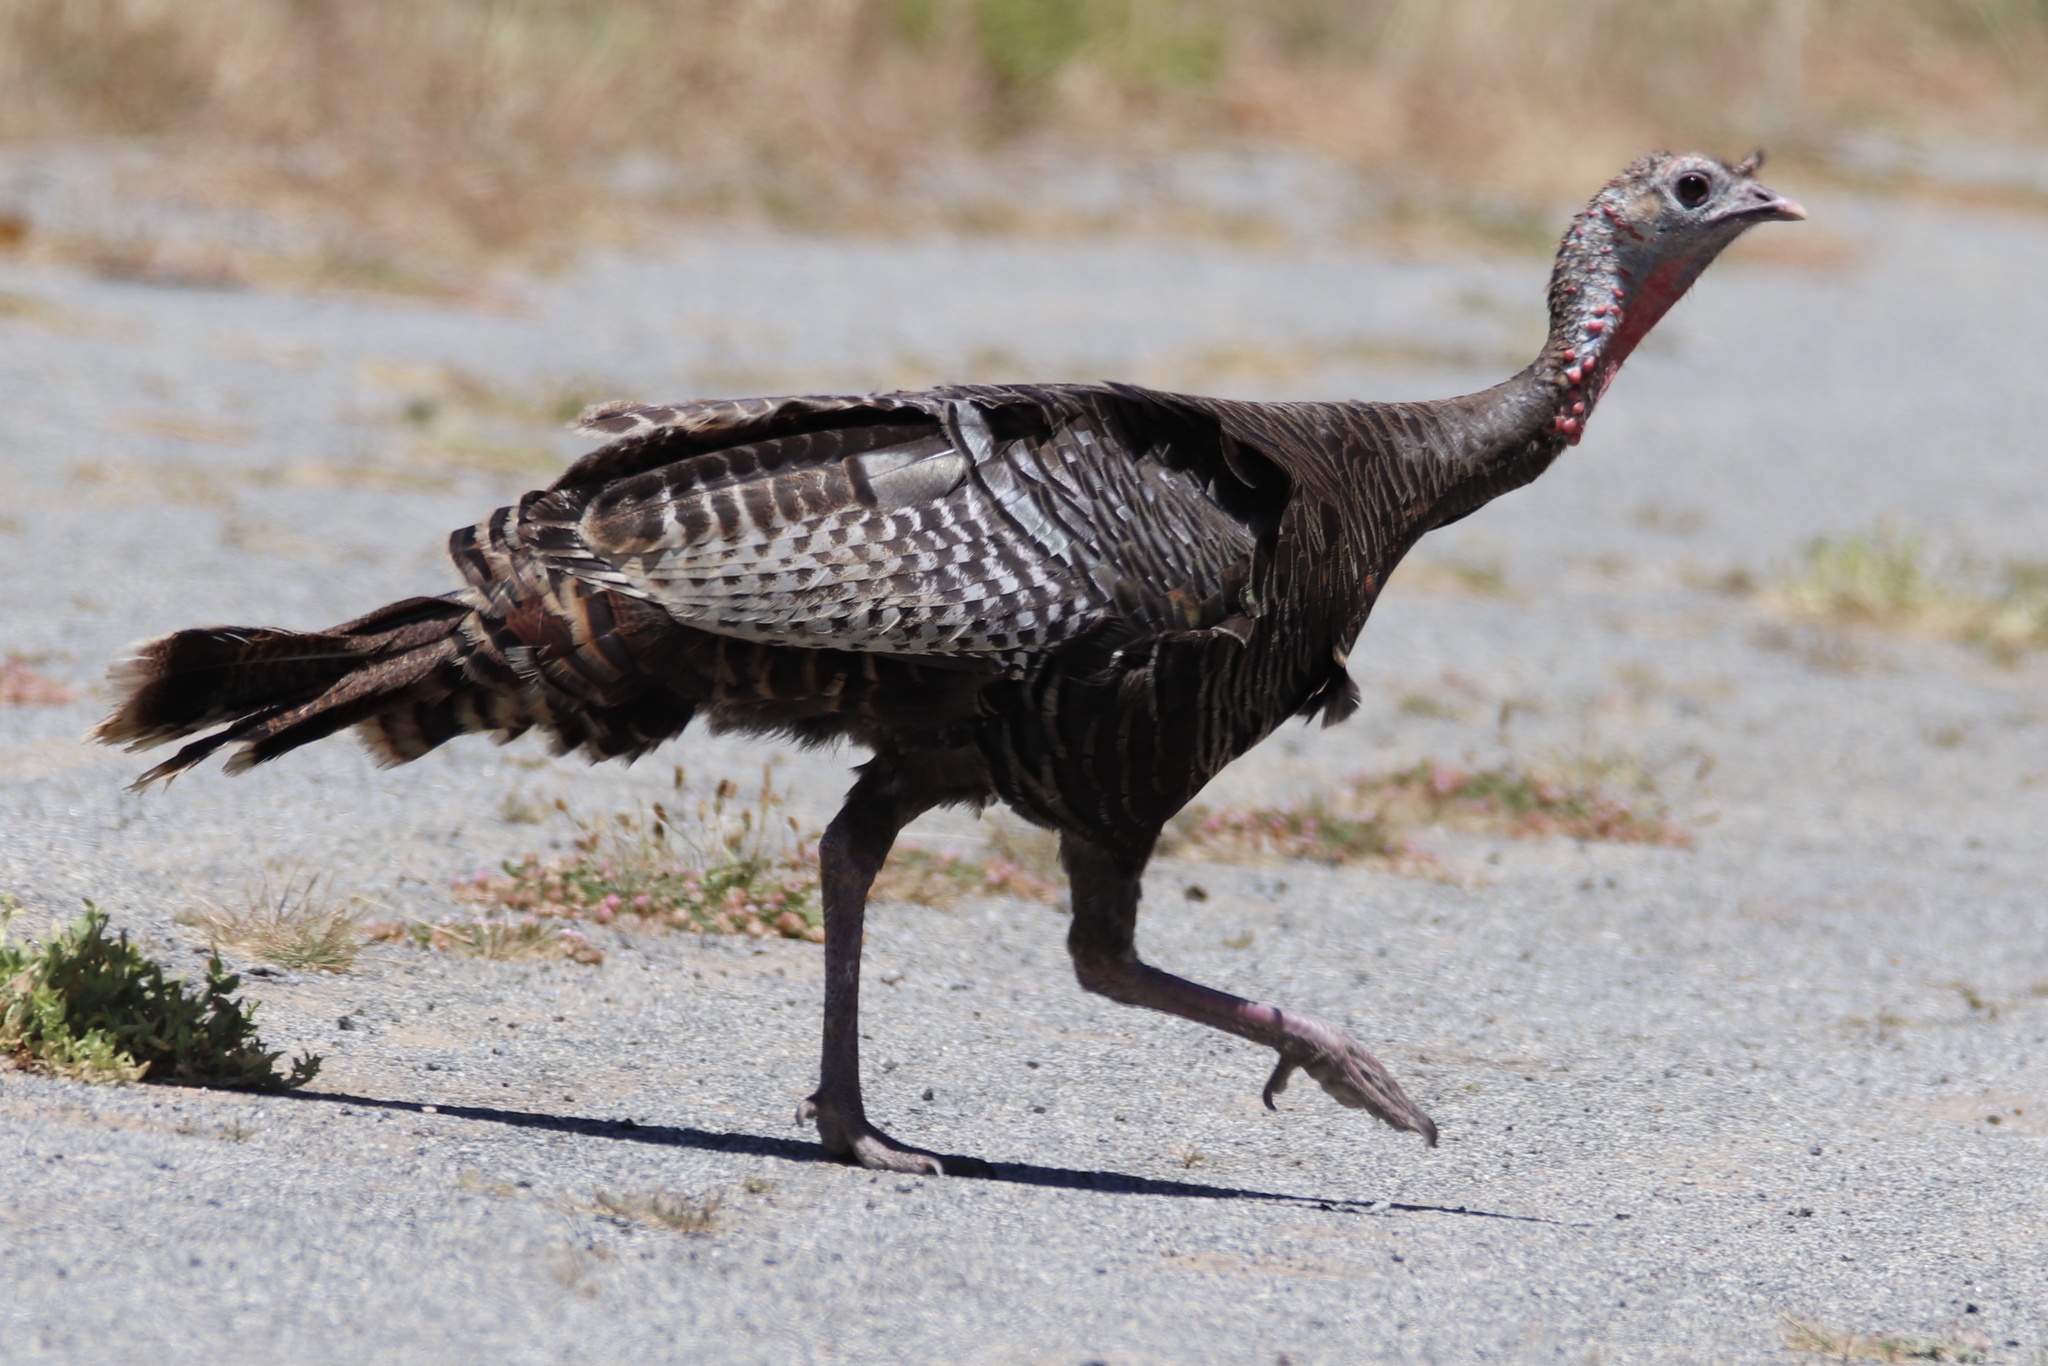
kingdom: Animalia
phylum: Chordata
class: Aves
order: Galliformes
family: Phasianidae
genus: Meleagris
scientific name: Meleagris gallopavo
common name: Wild turkey
